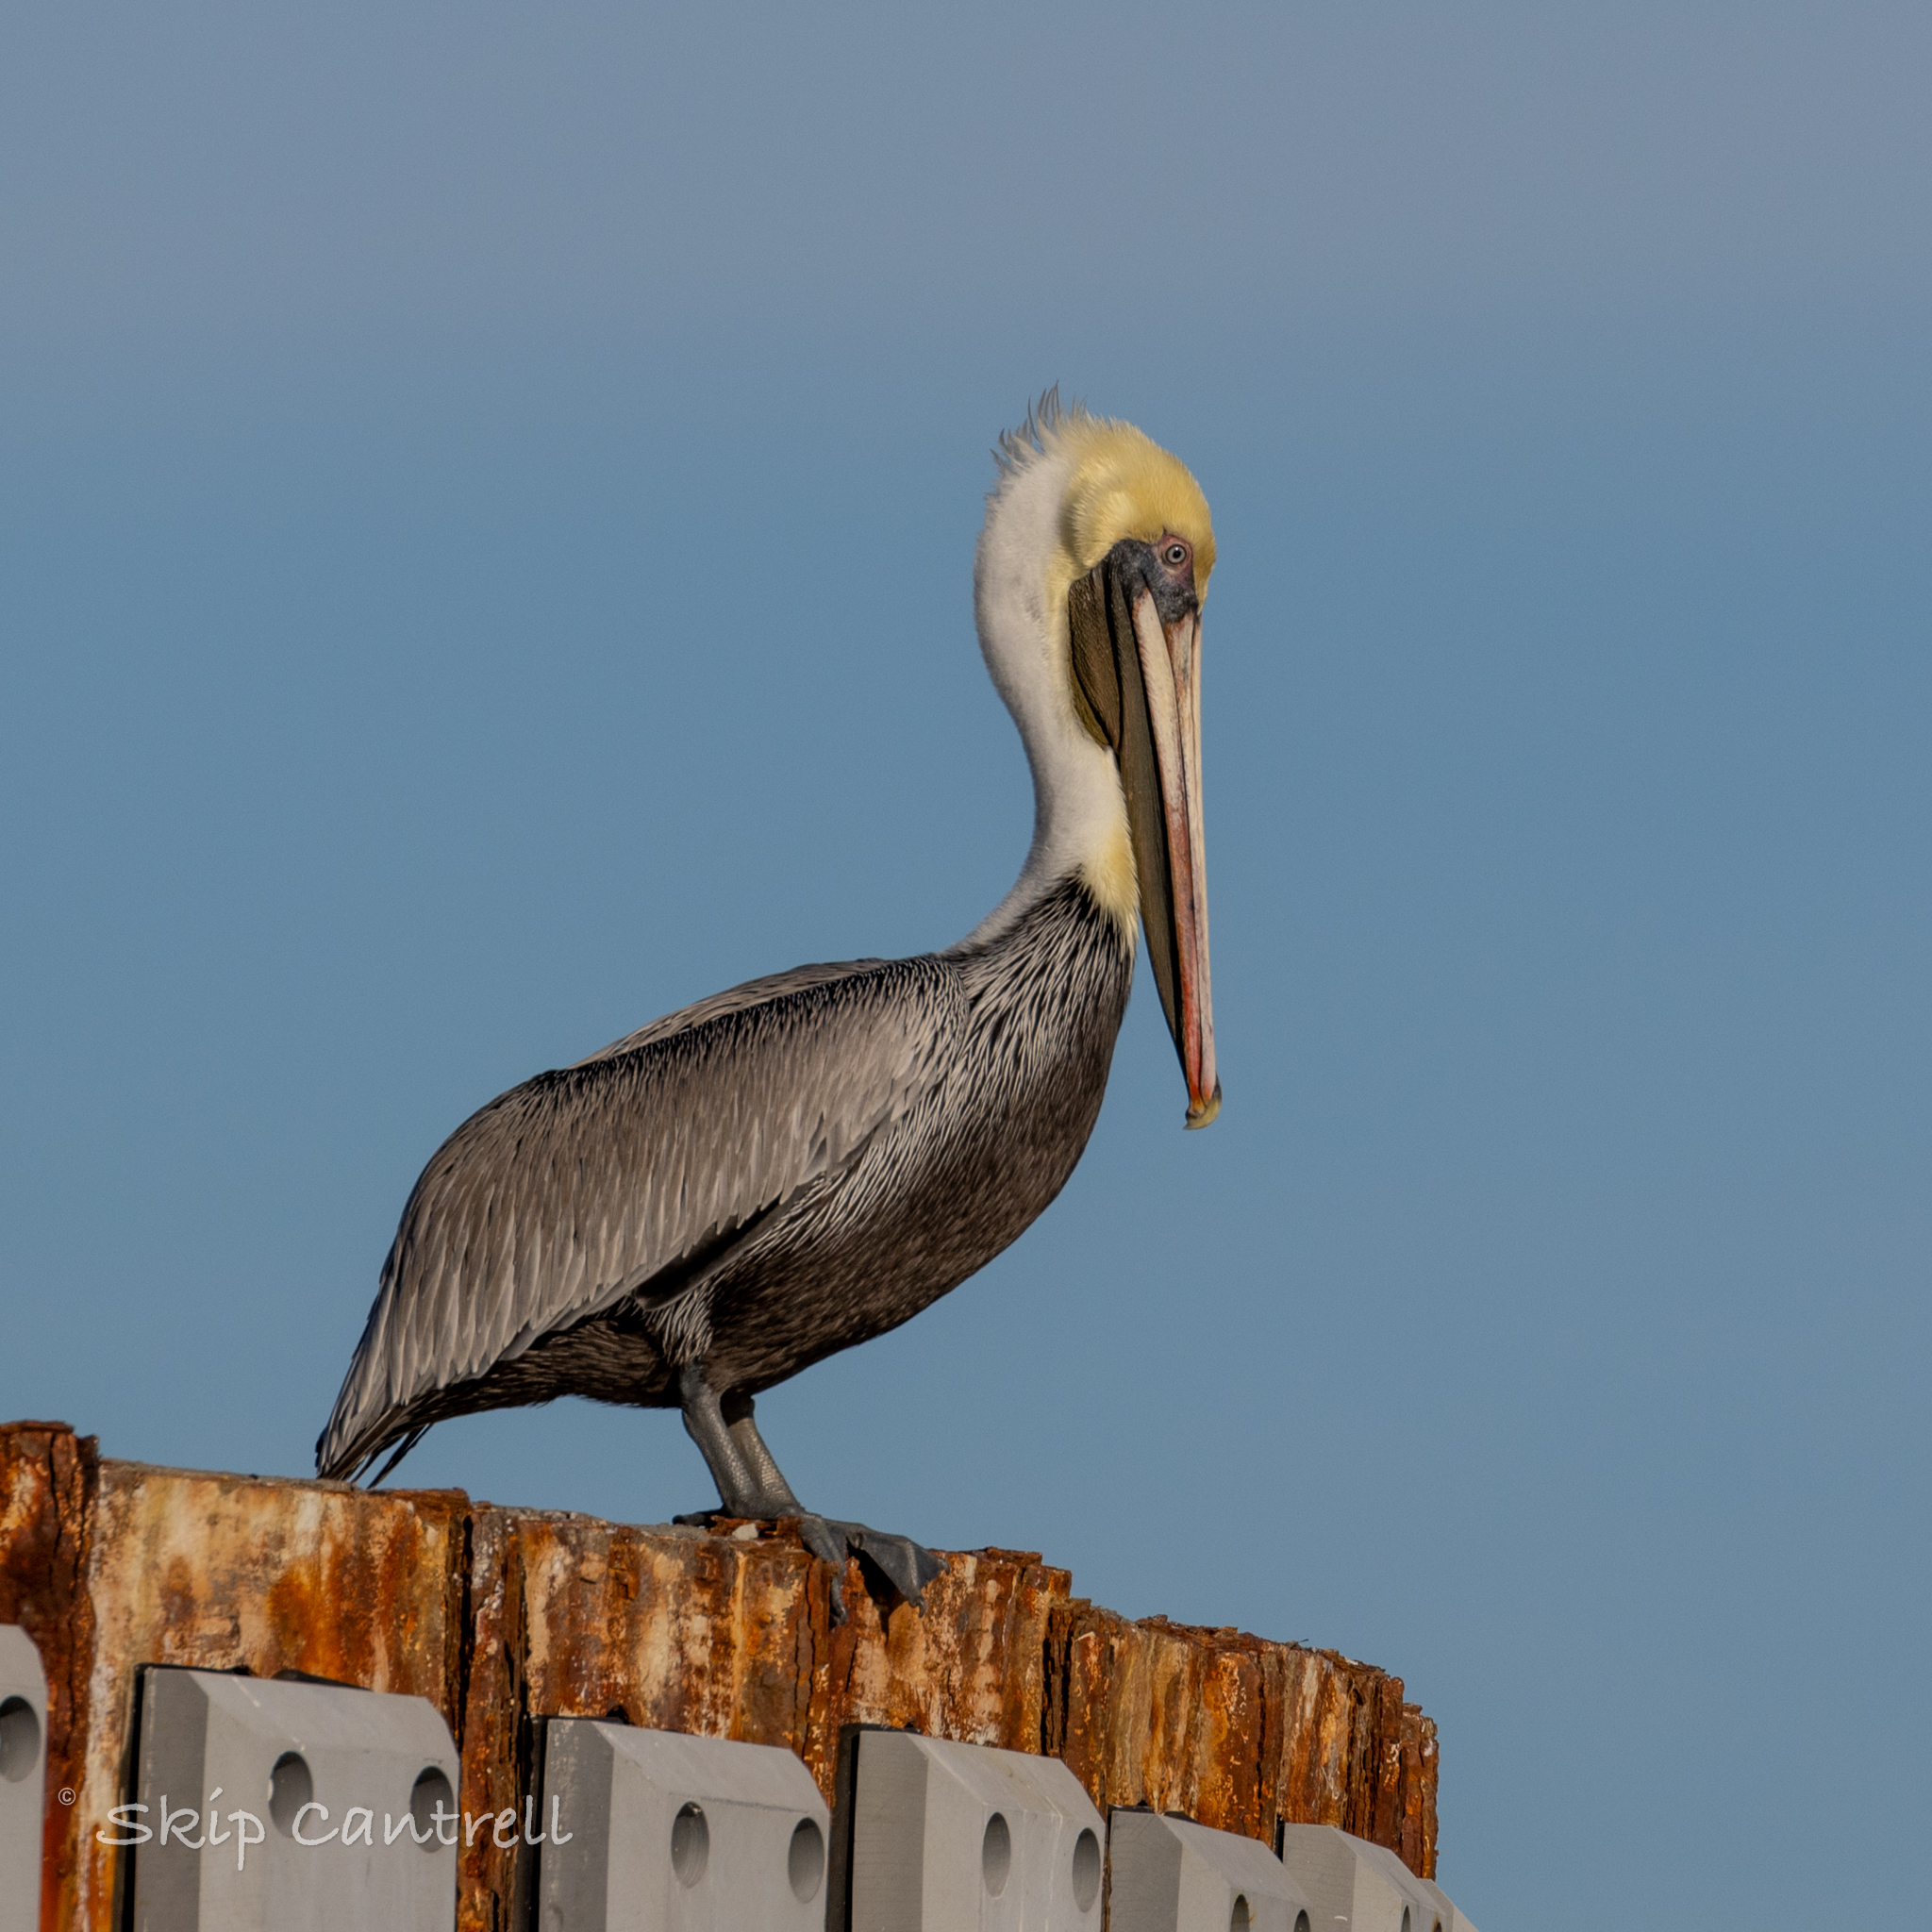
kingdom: Animalia
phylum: Chordata
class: Aves
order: Pelecaniformes
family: Pelecanidae
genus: Pelecanus
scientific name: Pelecanus occidentalis
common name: Brown pelican
